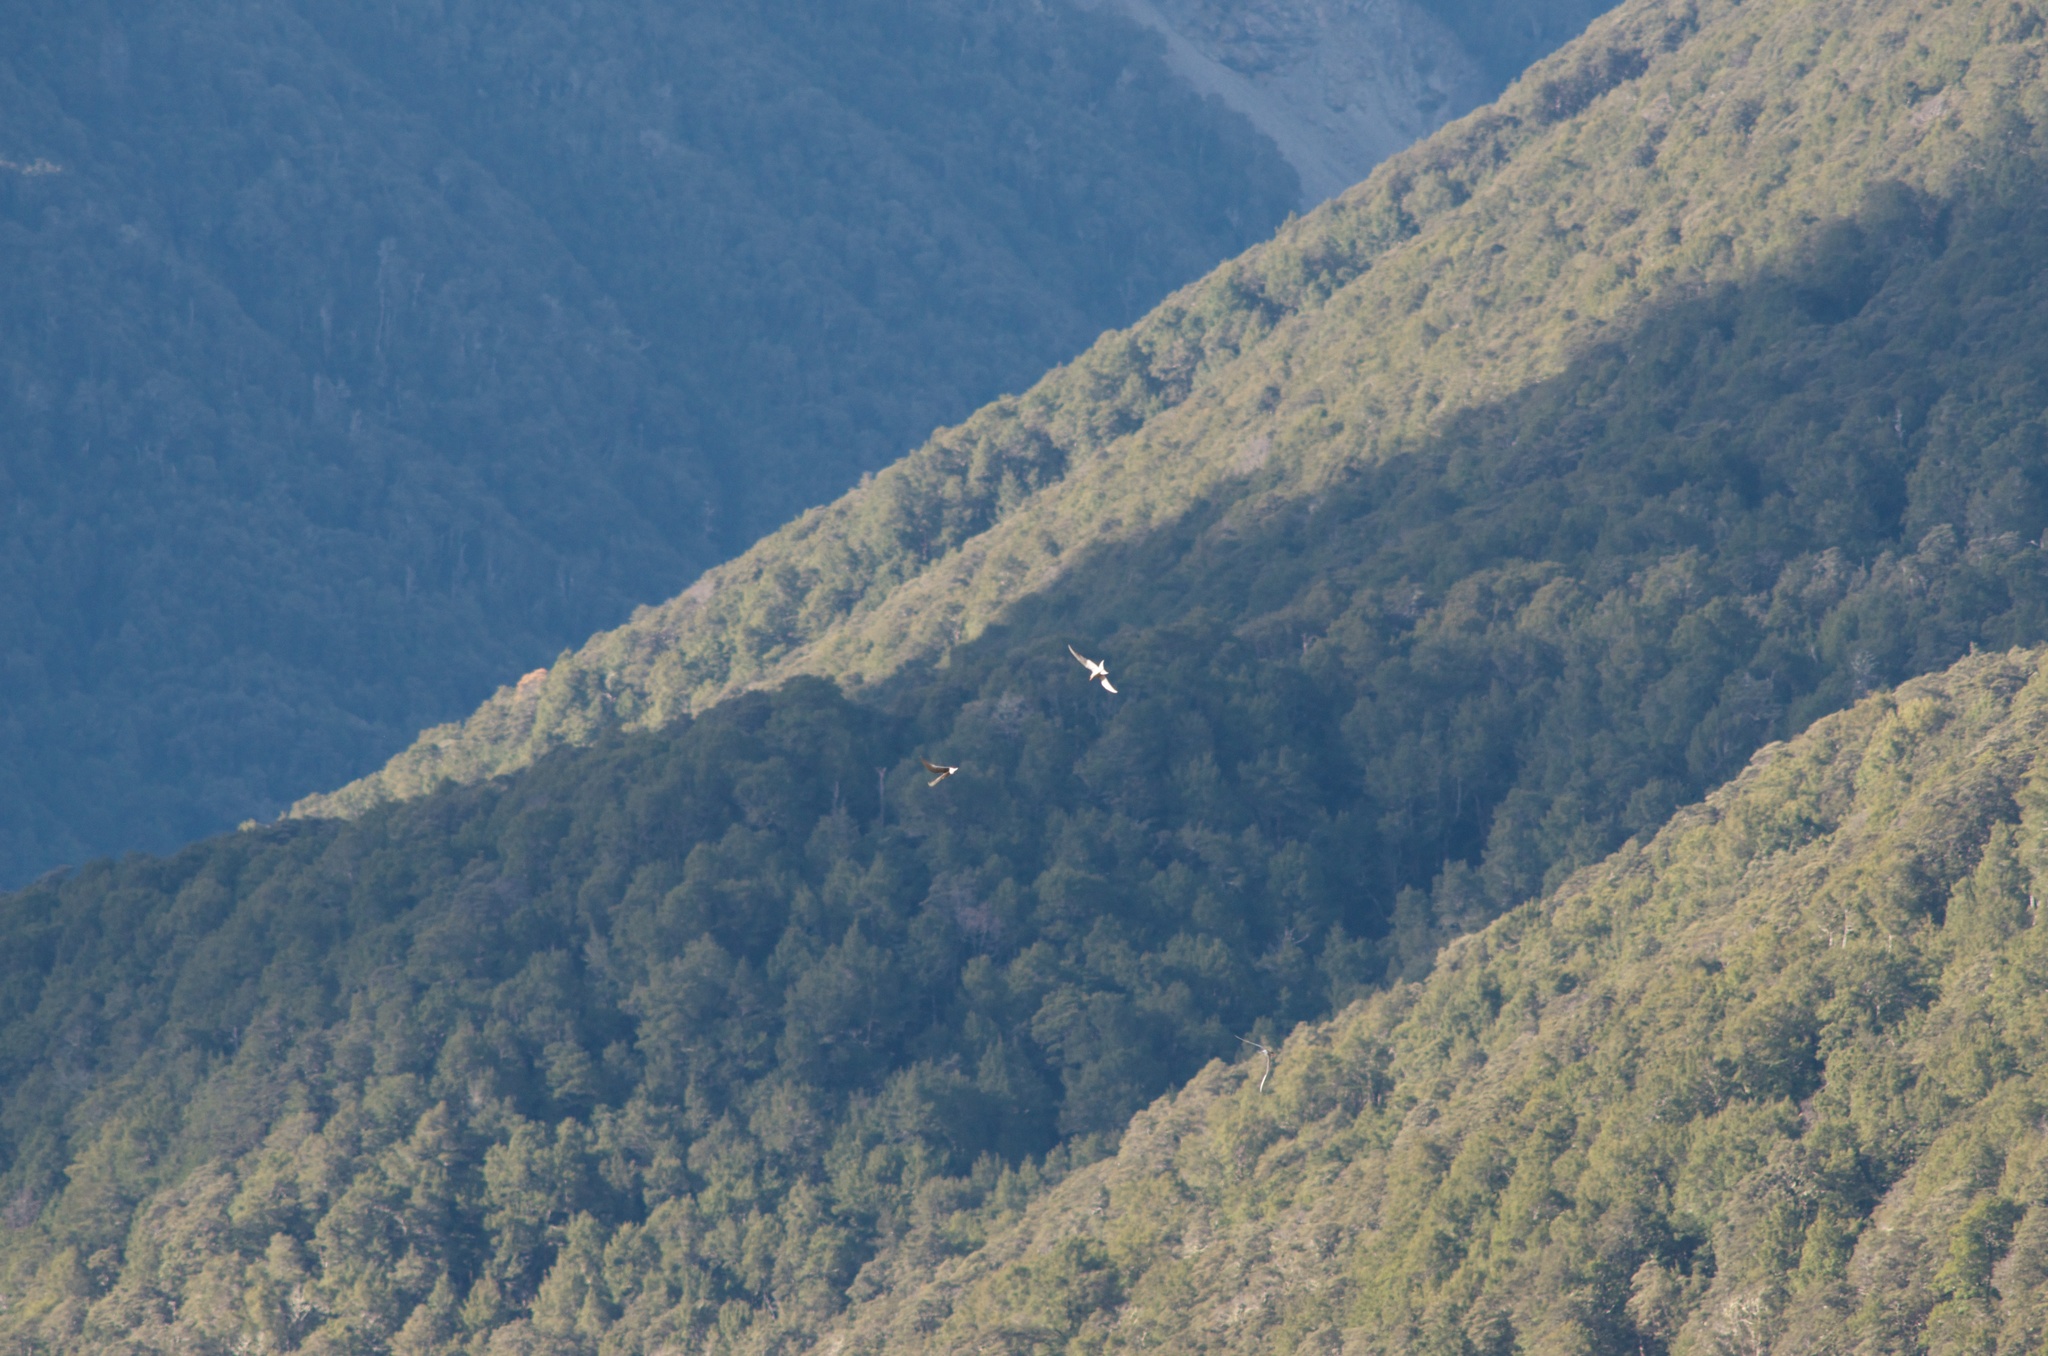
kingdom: Animalia
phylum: Chordata
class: Aves
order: Charadriiformes
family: Laridae
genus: Chlidonias
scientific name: Chlidonias albostriatus
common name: Black-fronted tern
